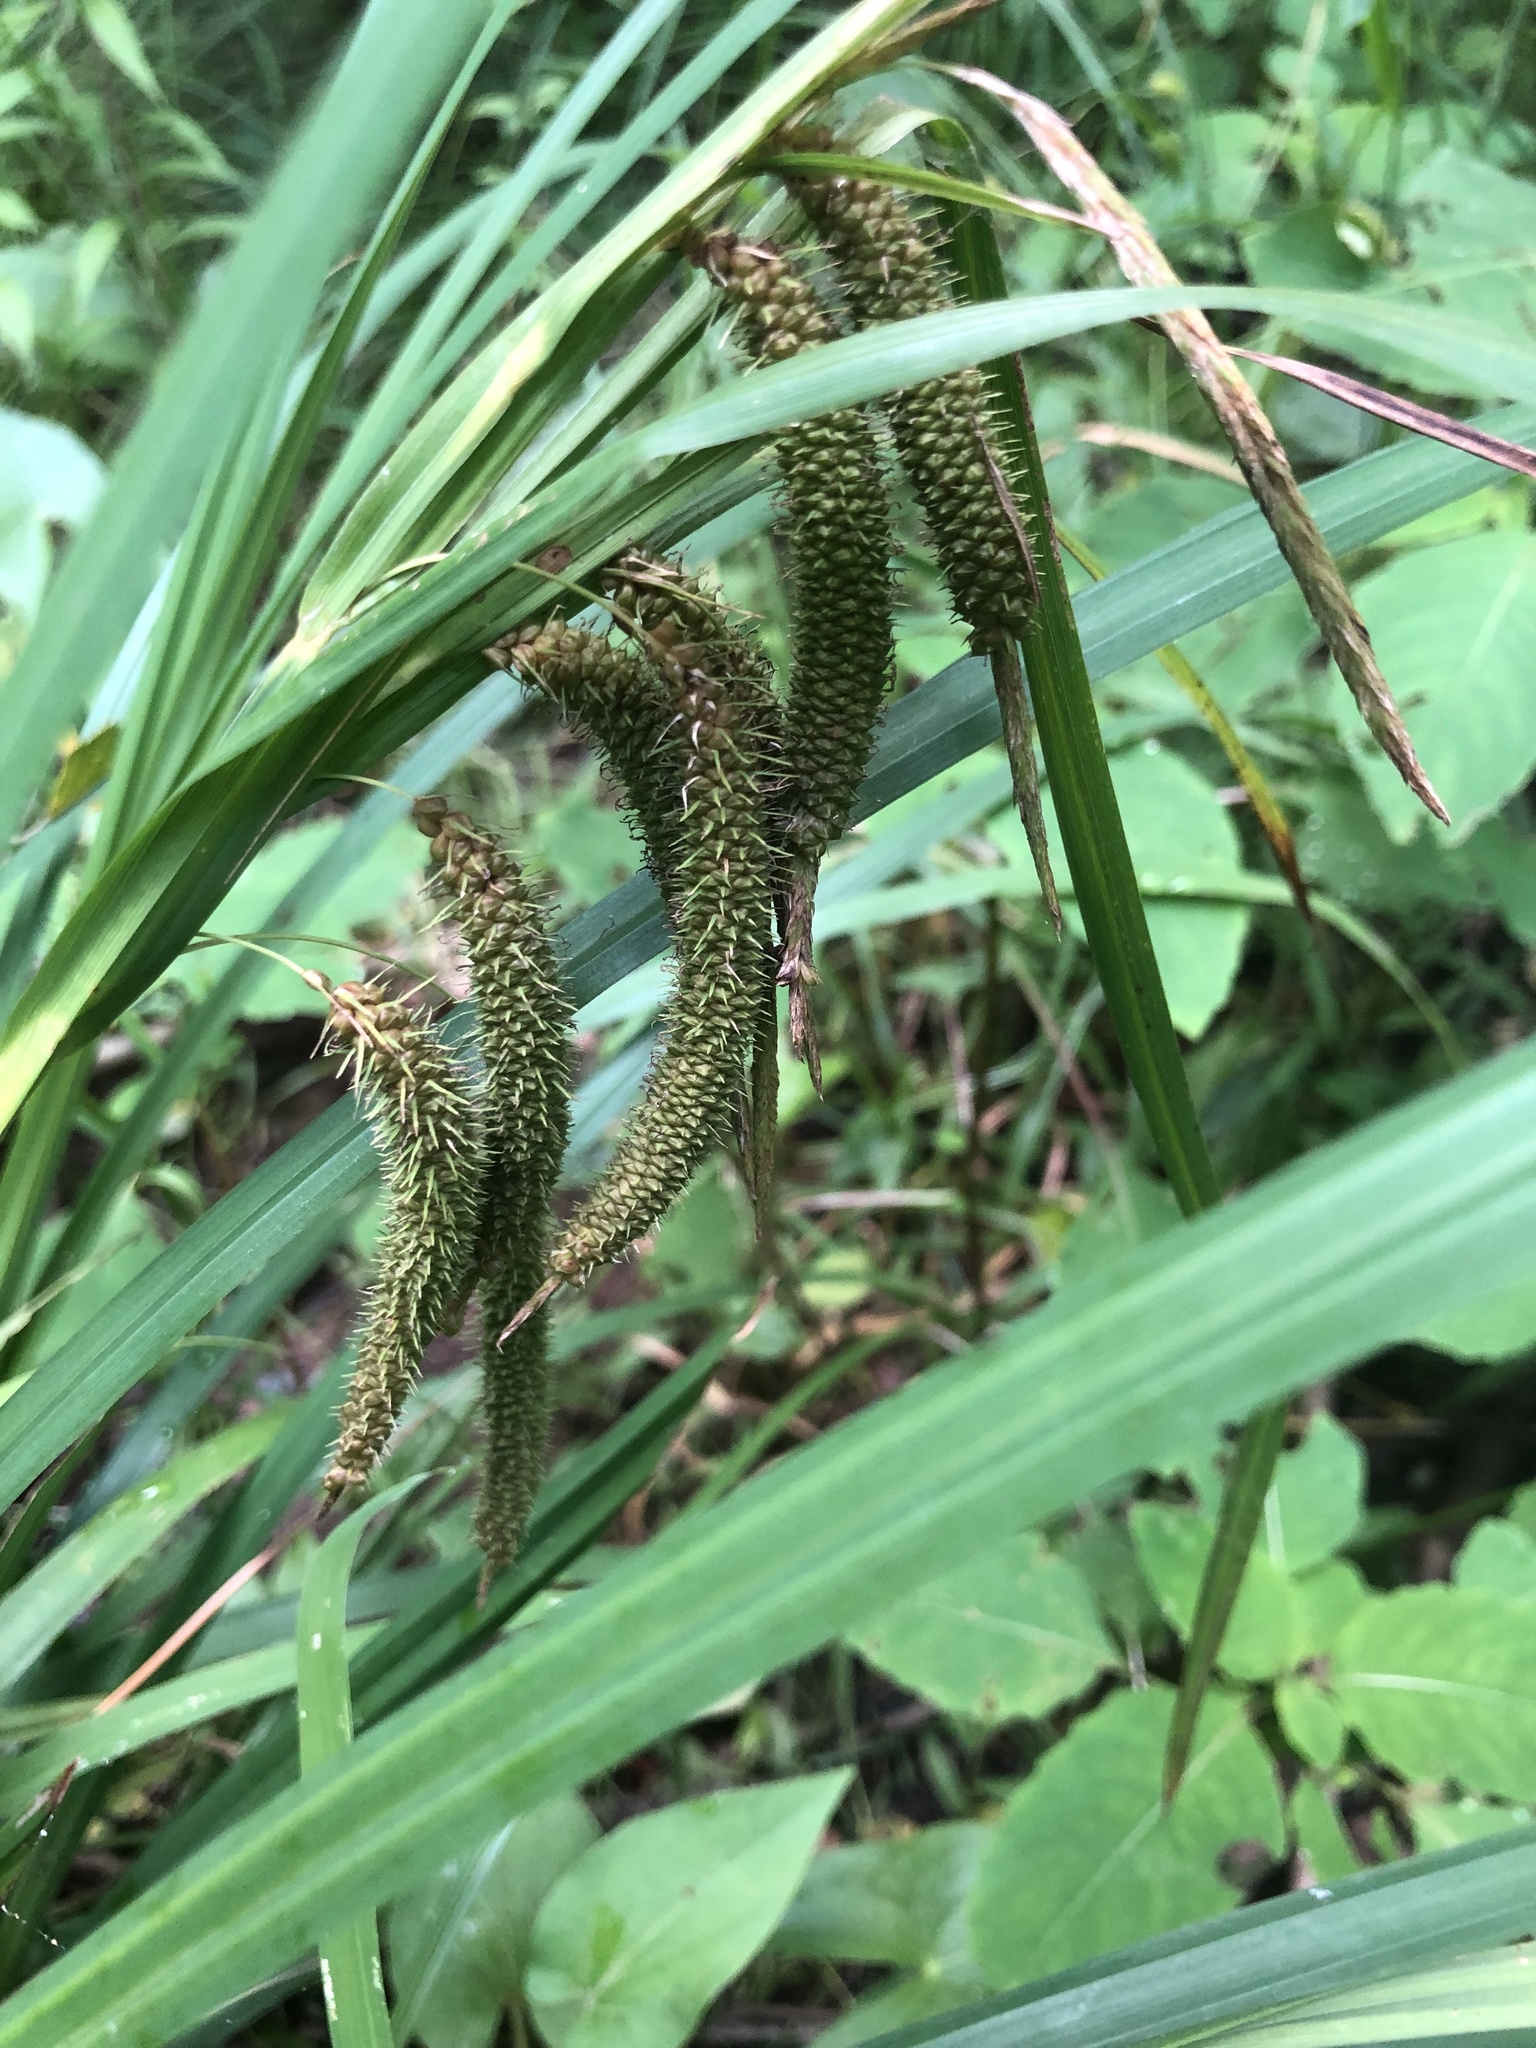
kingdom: Plantae
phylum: Tracheophyta
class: Liliopsida
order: Poales
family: Cyperaceae
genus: Carex
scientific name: Carex crinita
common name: Fringed sedge
